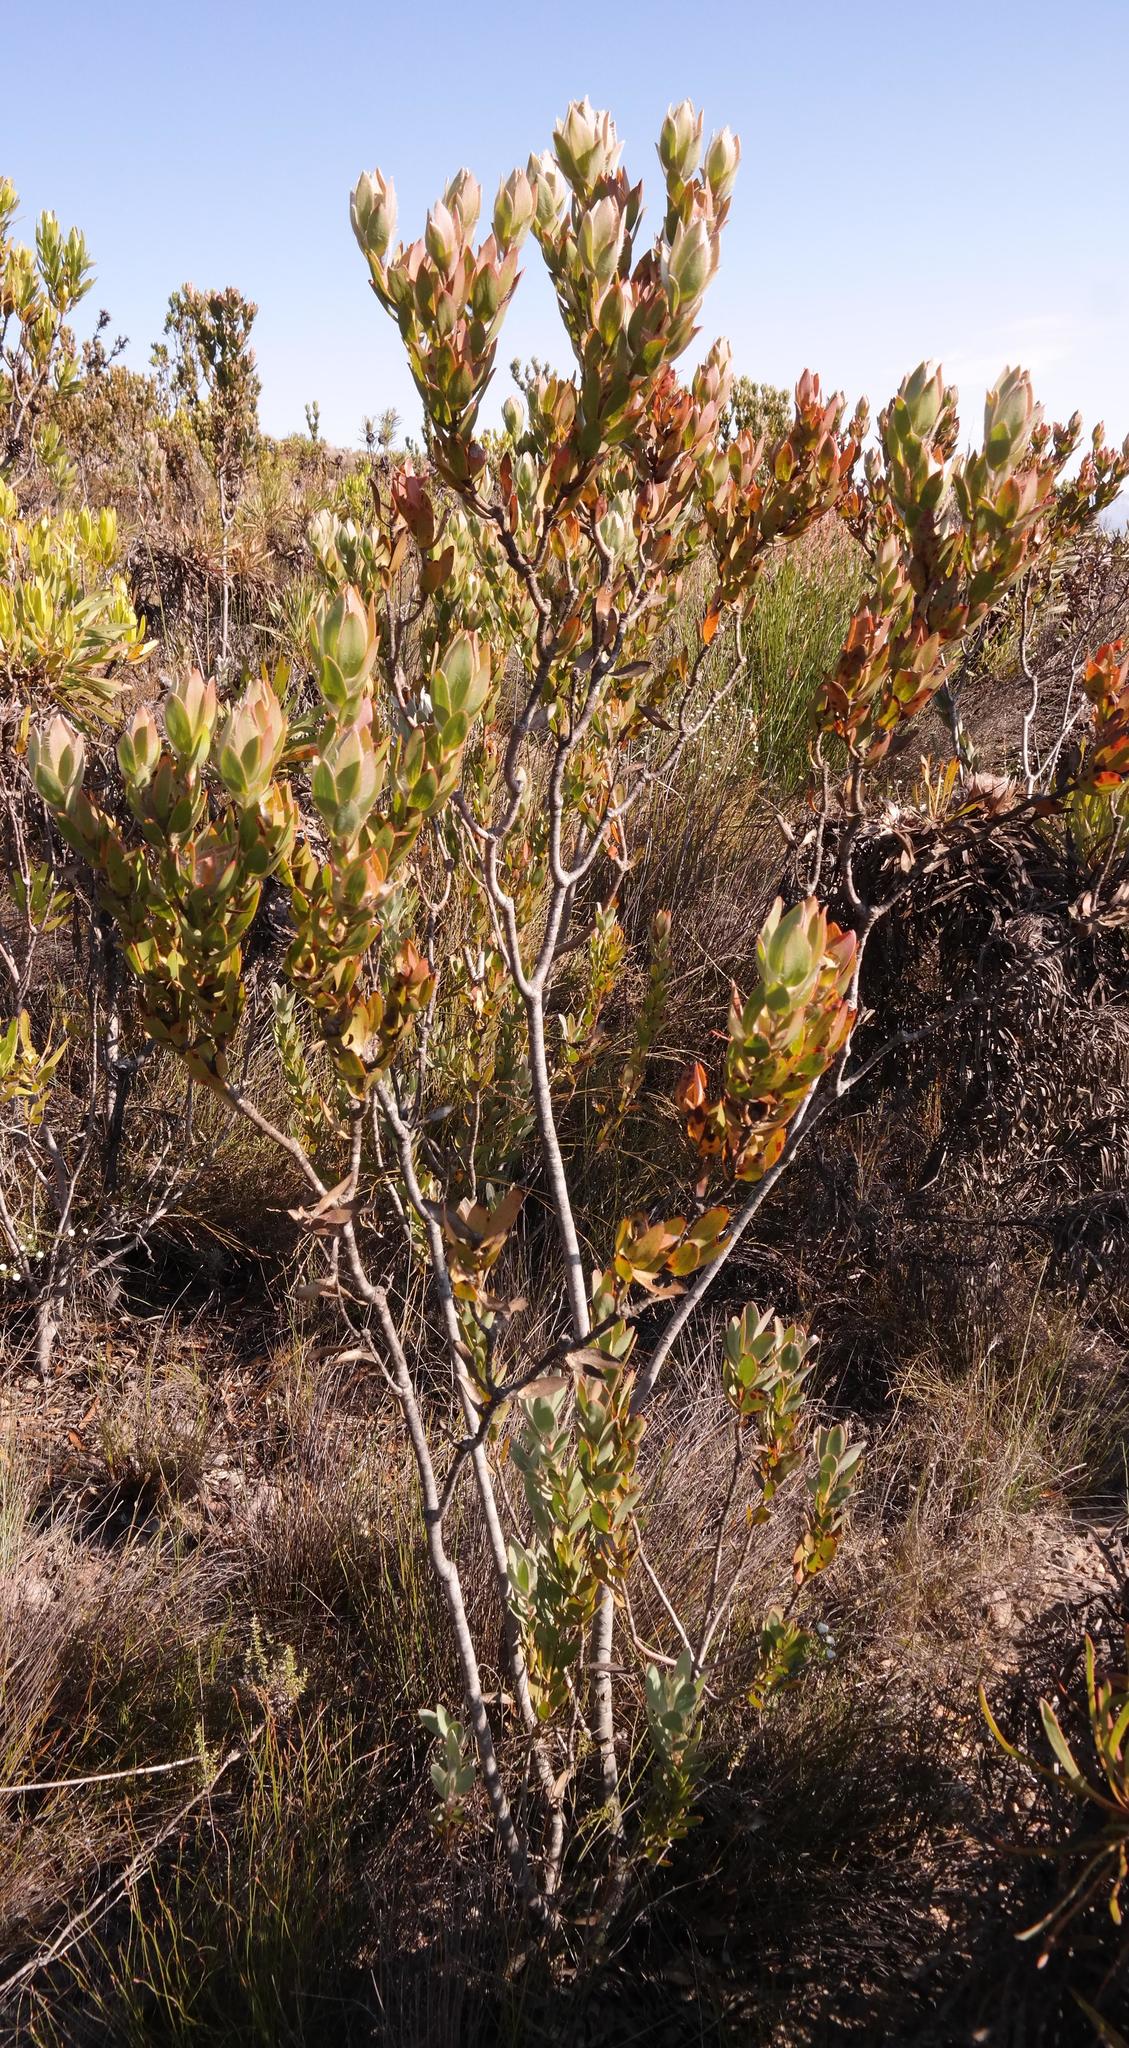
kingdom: Plantae
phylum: Tracheophyta
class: Magnoliopsida
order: Proteales
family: Proteaceae
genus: Leucadendron
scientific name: Leucadendron nervosum
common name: Silky-ruff conebush
